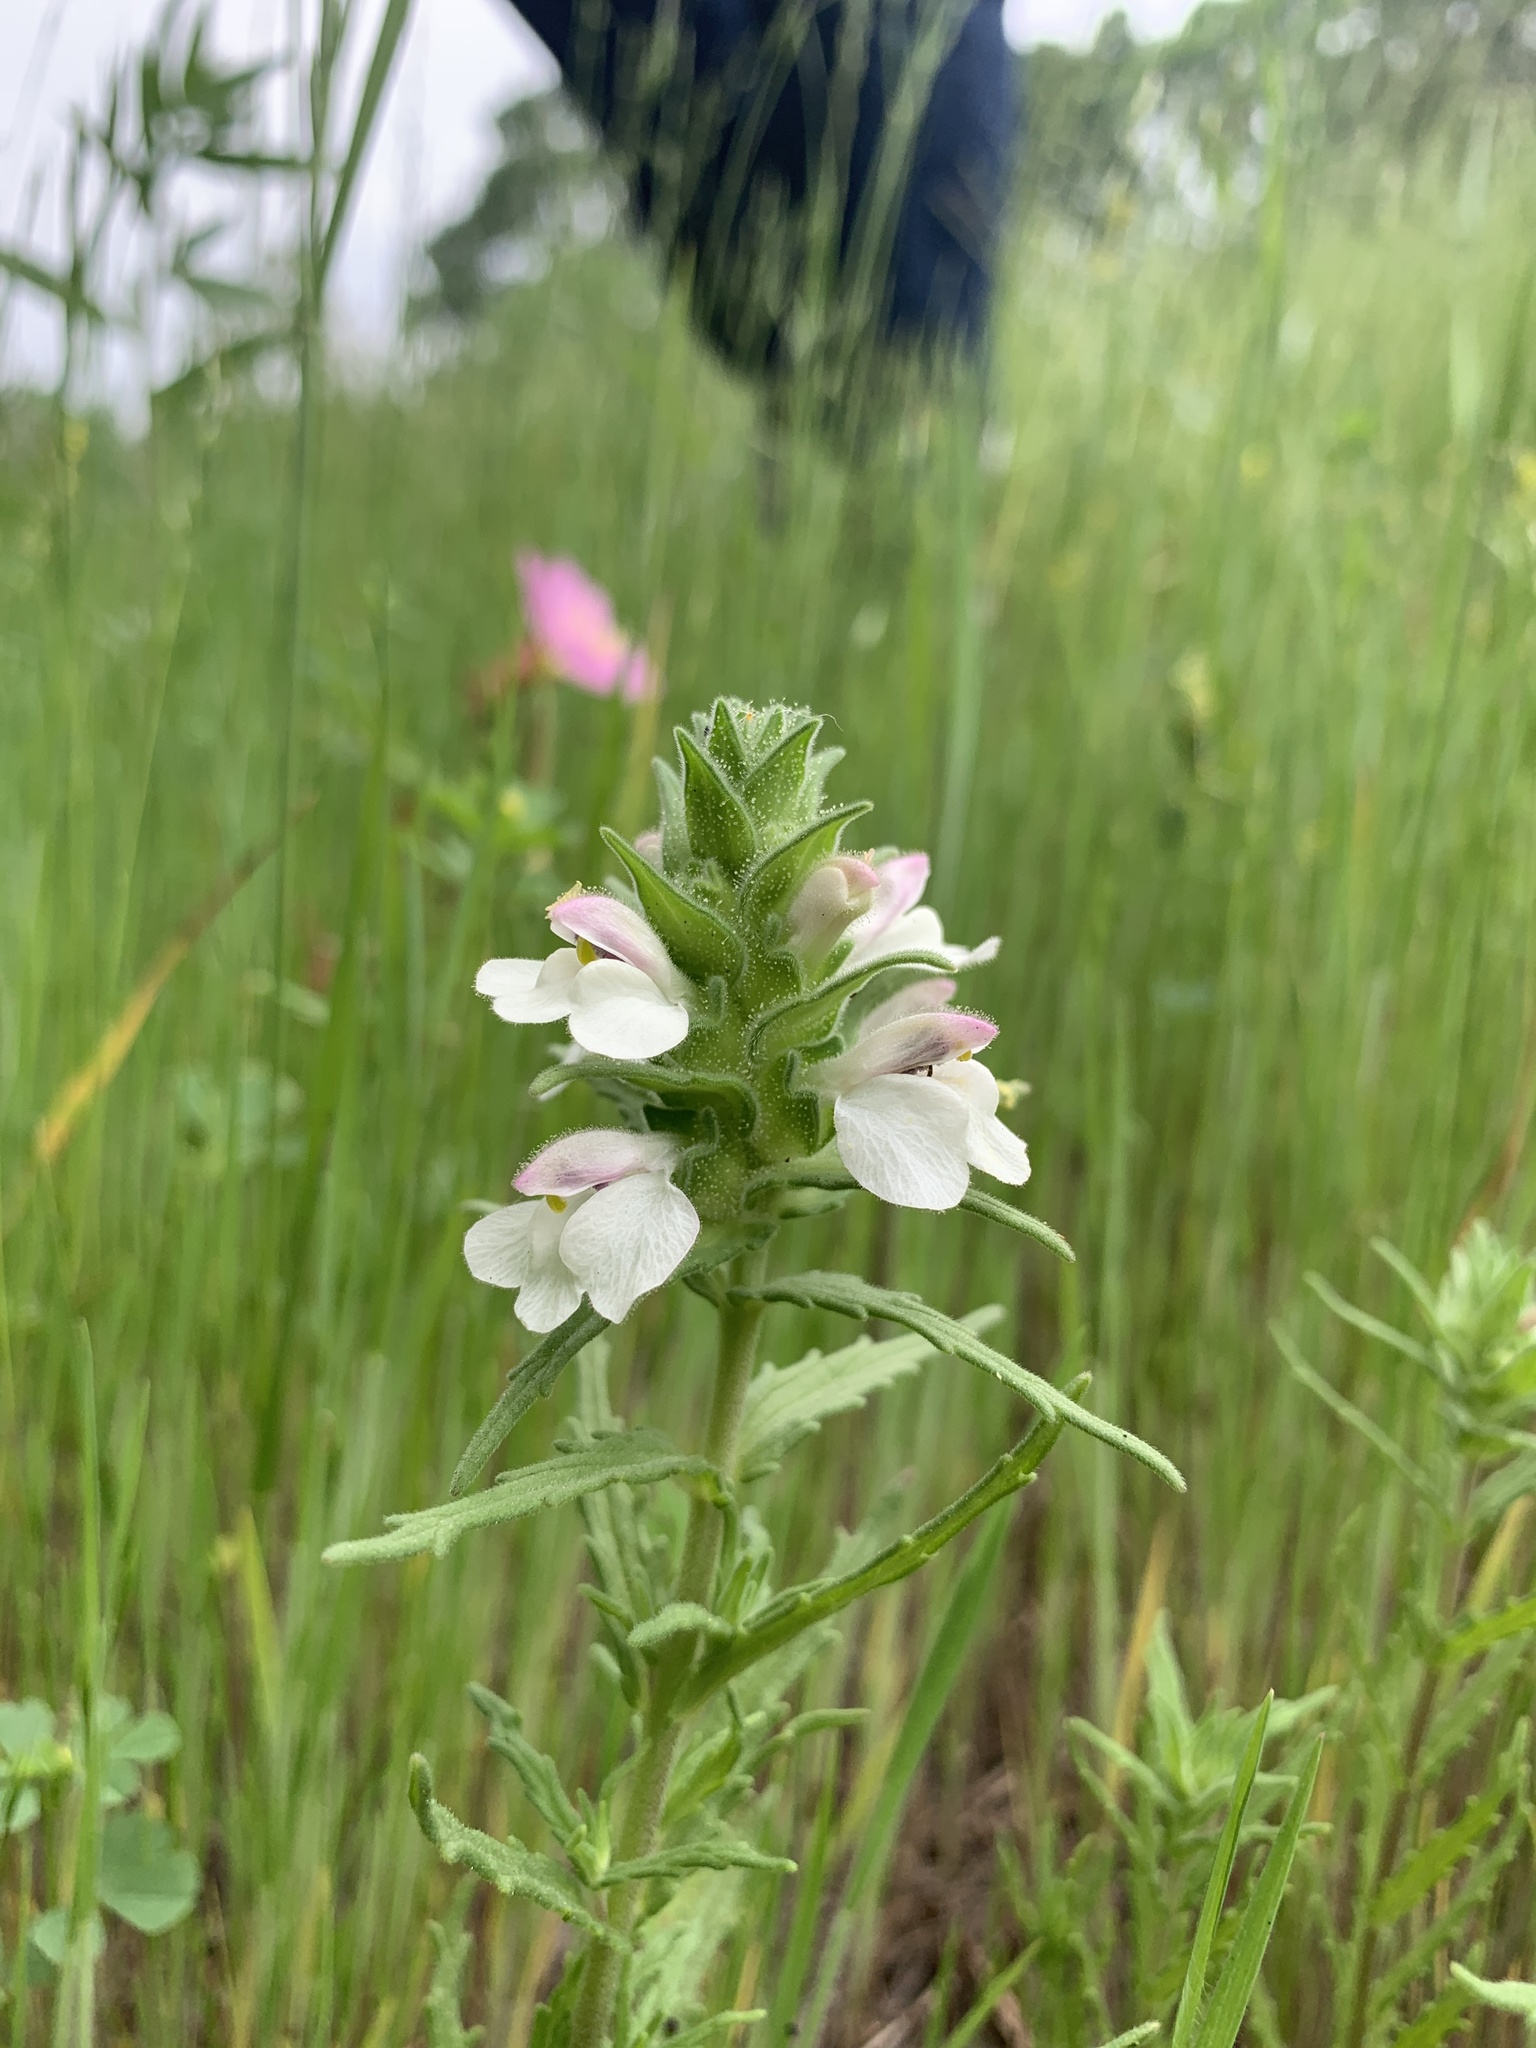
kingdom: Plantae
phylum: Tracheophyta
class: Magnoliopsida
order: Lamiales
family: Orobanchaceae
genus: Bellardia
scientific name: Bellardia trixago
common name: Mediterranean lineseed
